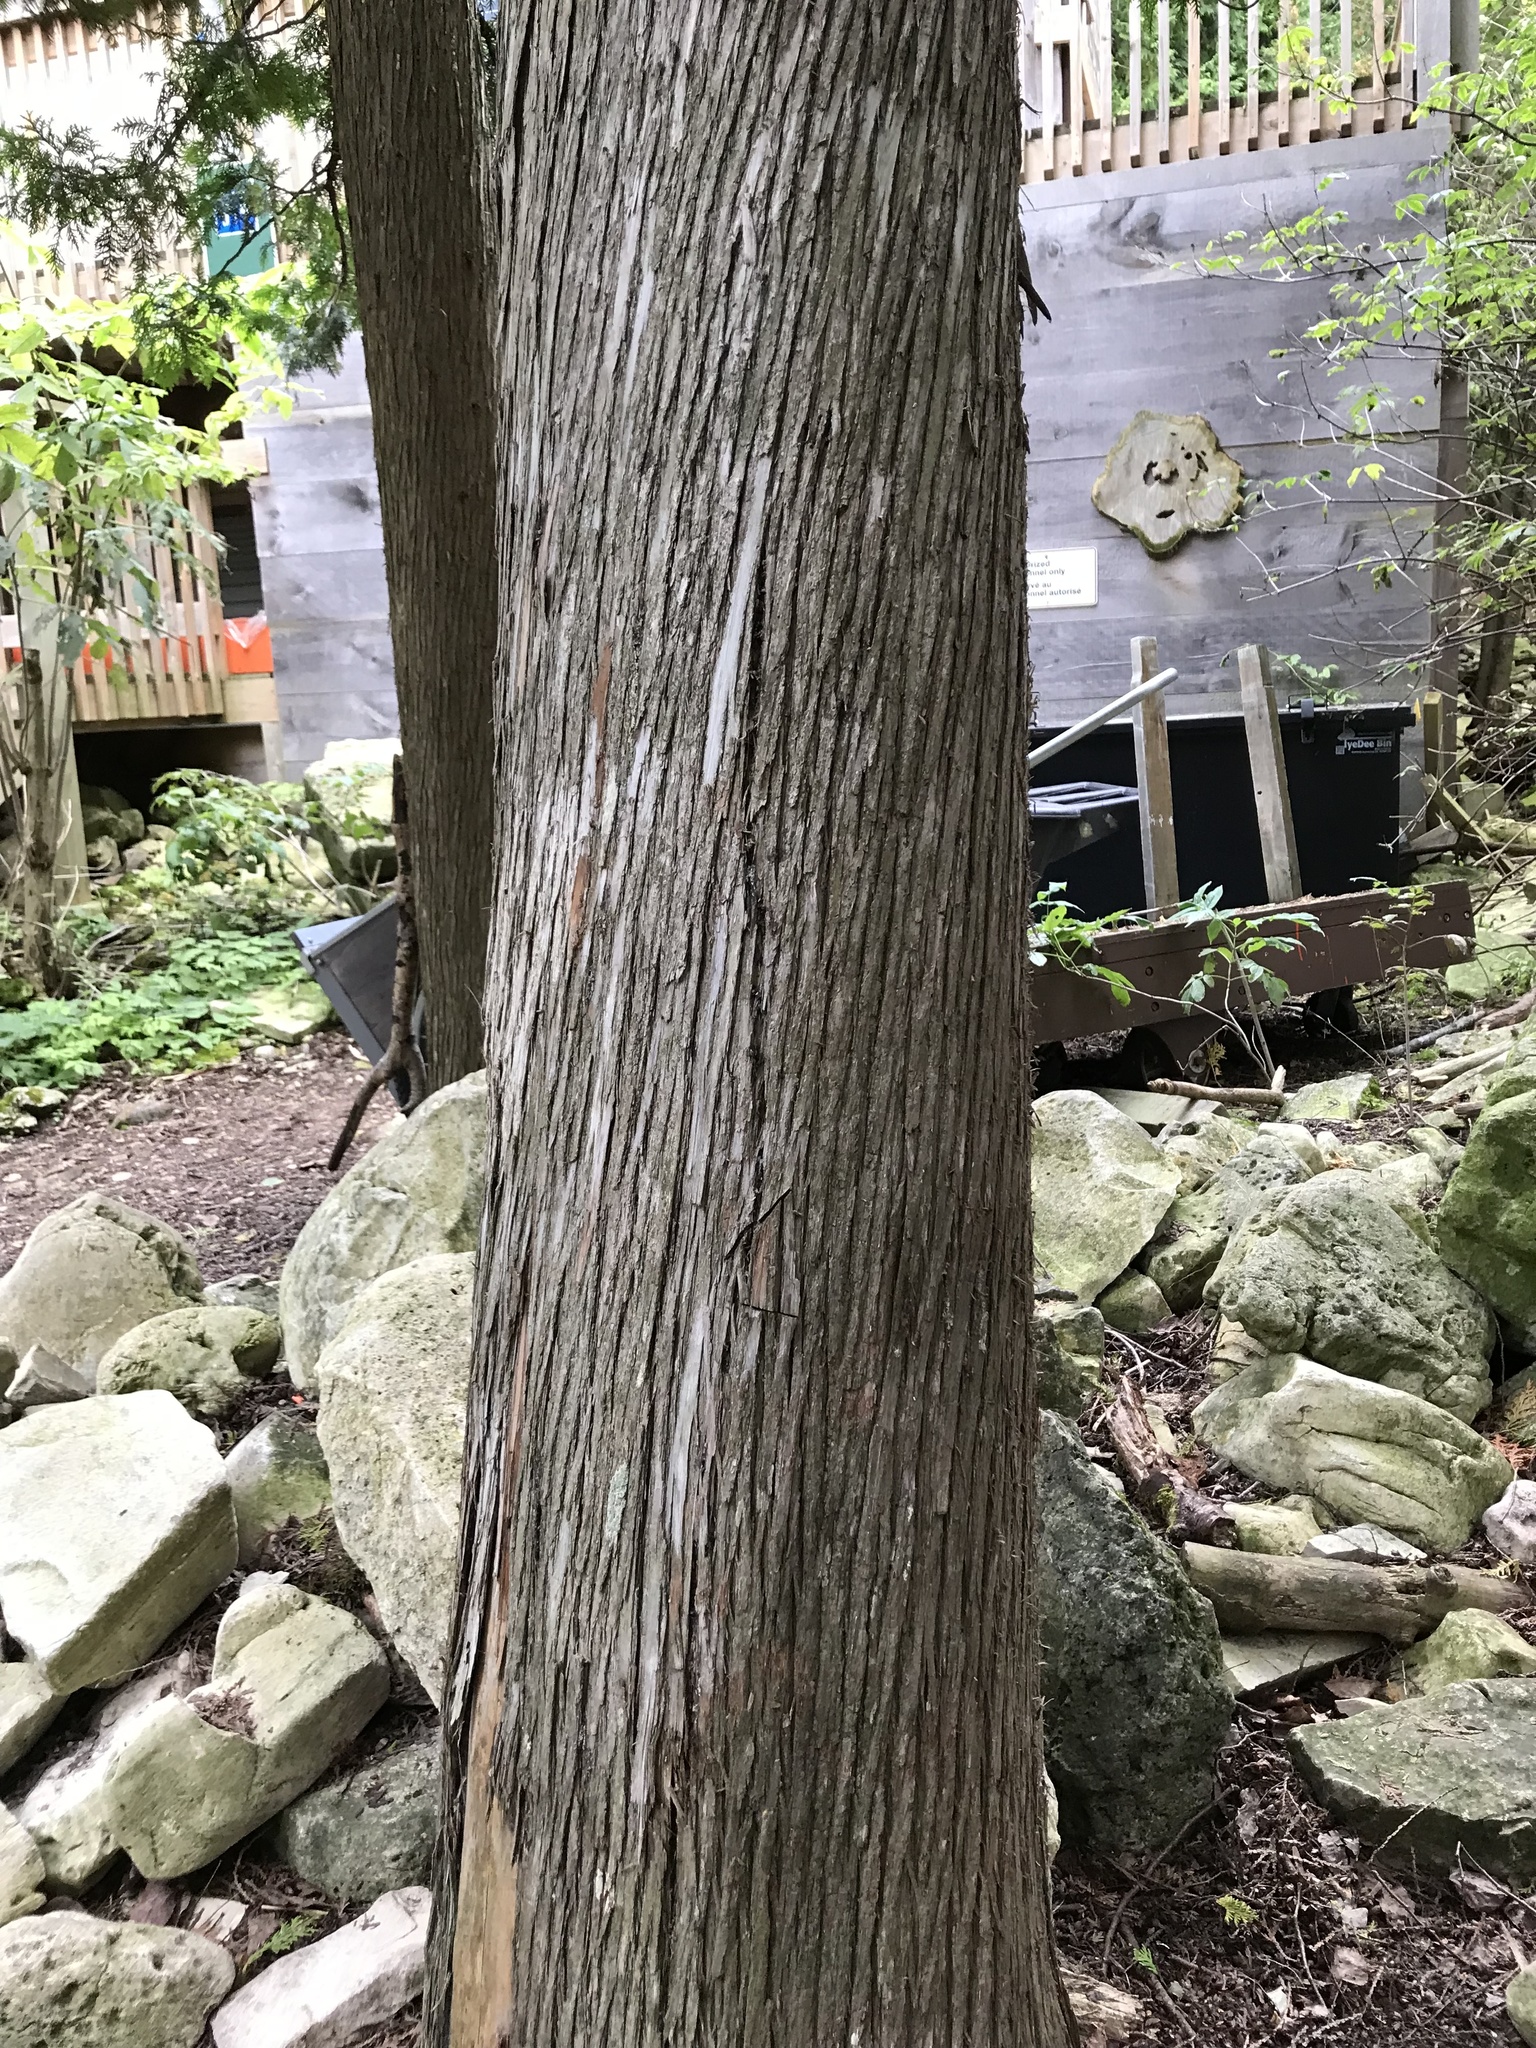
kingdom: Plantae
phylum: Tracheophyta
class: Pinopsida
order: Pinales
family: Cupressaceae
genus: Thuja
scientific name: Thuja occidentalis
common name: Northern white-cedar
